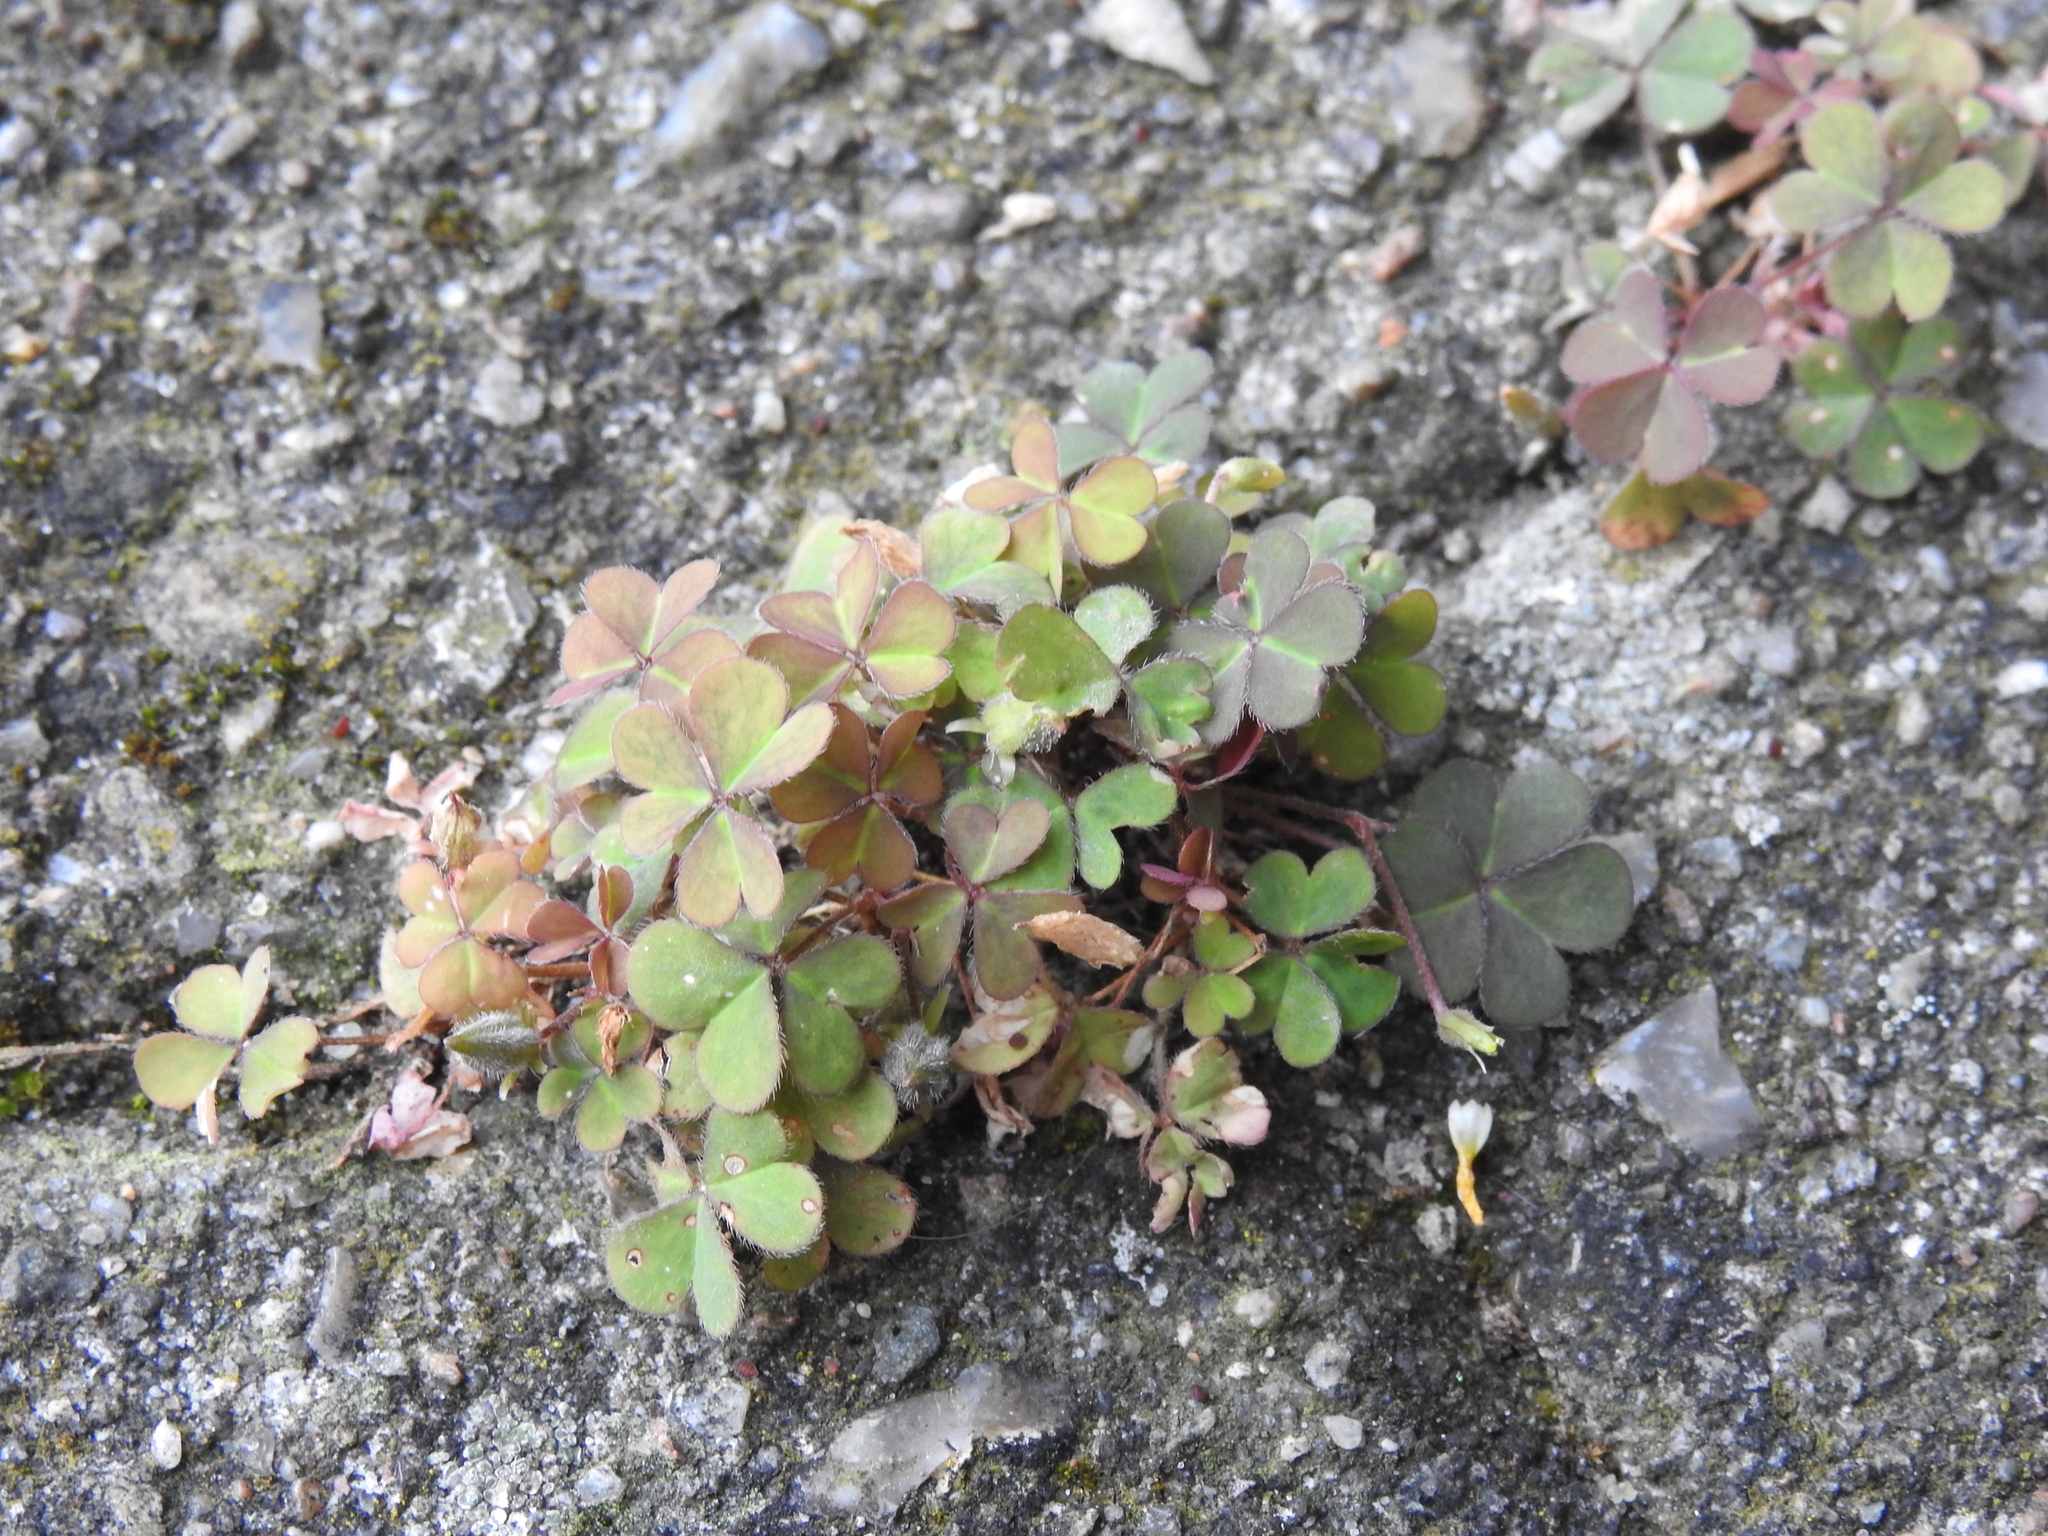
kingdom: Plantae
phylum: Tracheophyta
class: Magnoliopsida
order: Oxalidales
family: Oxalidaceae
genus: Oxalis
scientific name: Oxalis corniculata
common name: Procumbent yellow-sorrel
